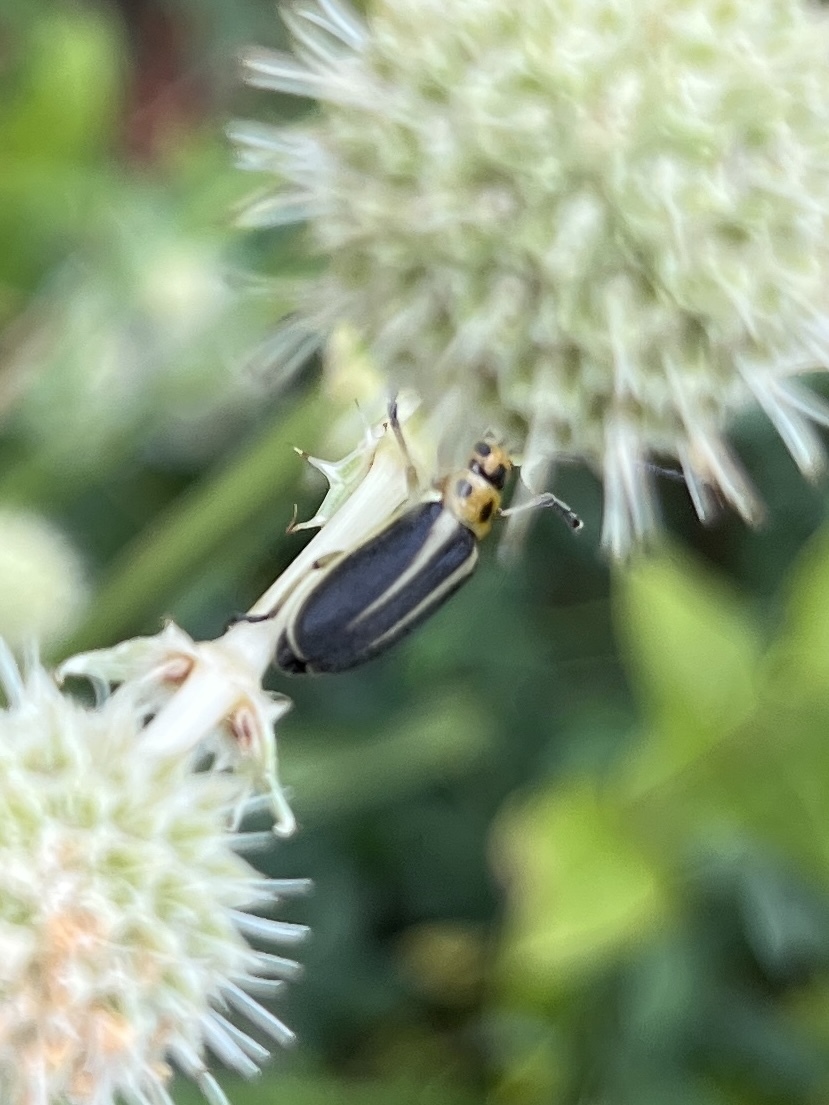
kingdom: Animalia
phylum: Arthropoda
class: Insecta
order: Coleoptera
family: Chrysomelidae
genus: Trirhabda
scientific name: Trirhabda bacharidis
